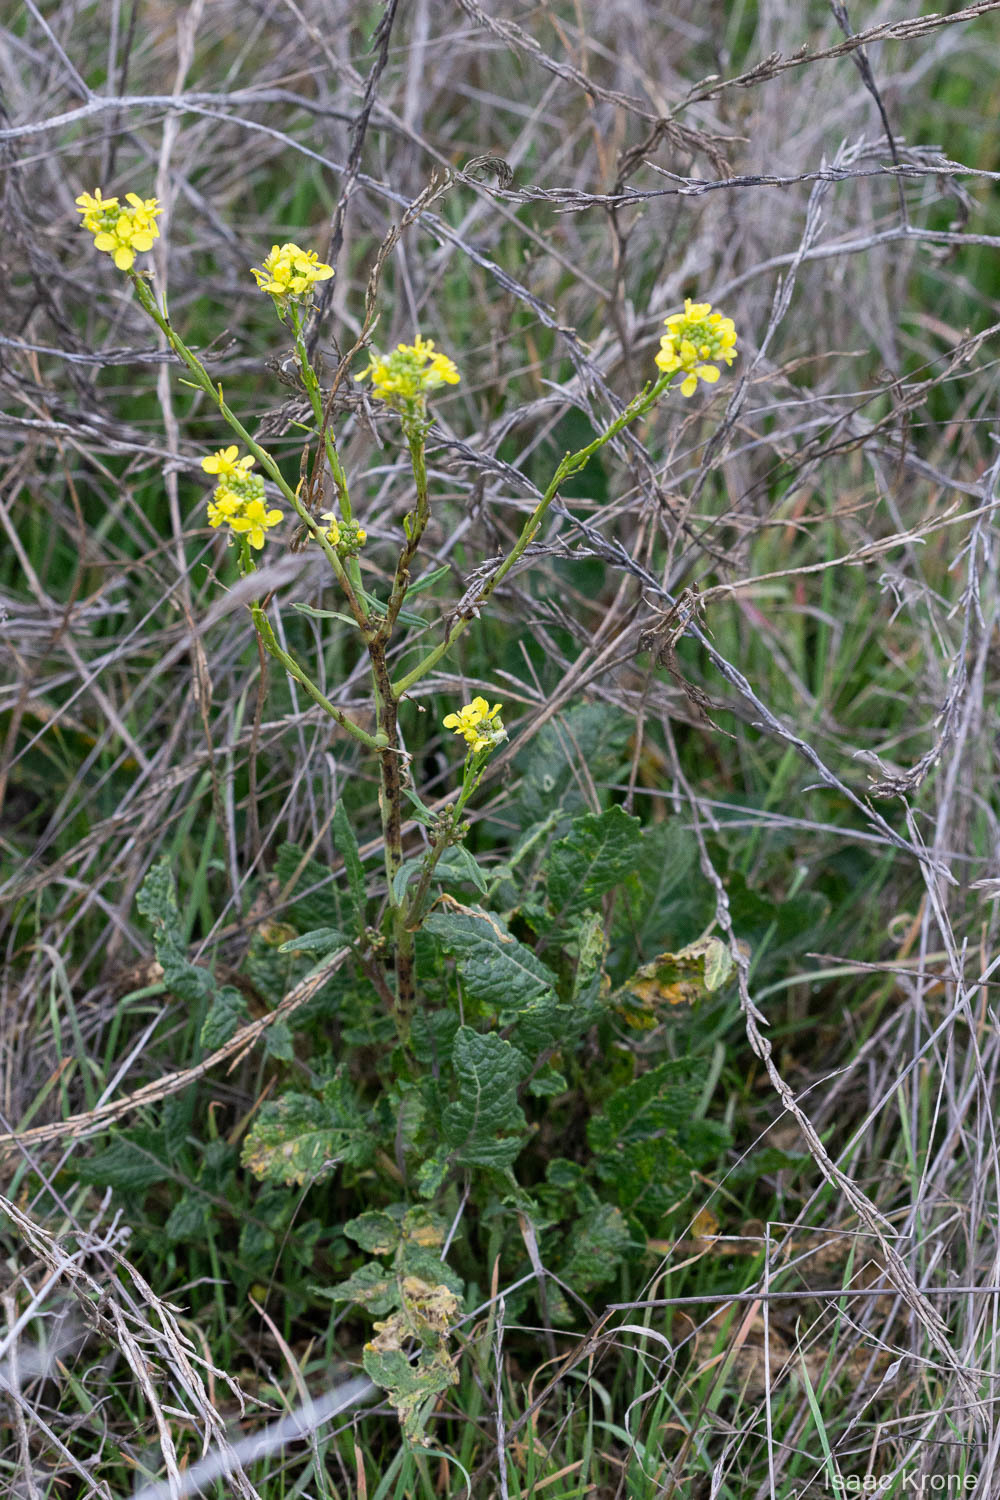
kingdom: Plantae
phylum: Tracheophyta
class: Magnoliopsida
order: Brassicales
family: Brassicaceae
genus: Hirschfeldia
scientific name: Hirschfeldia incana
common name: Hoary mustard
